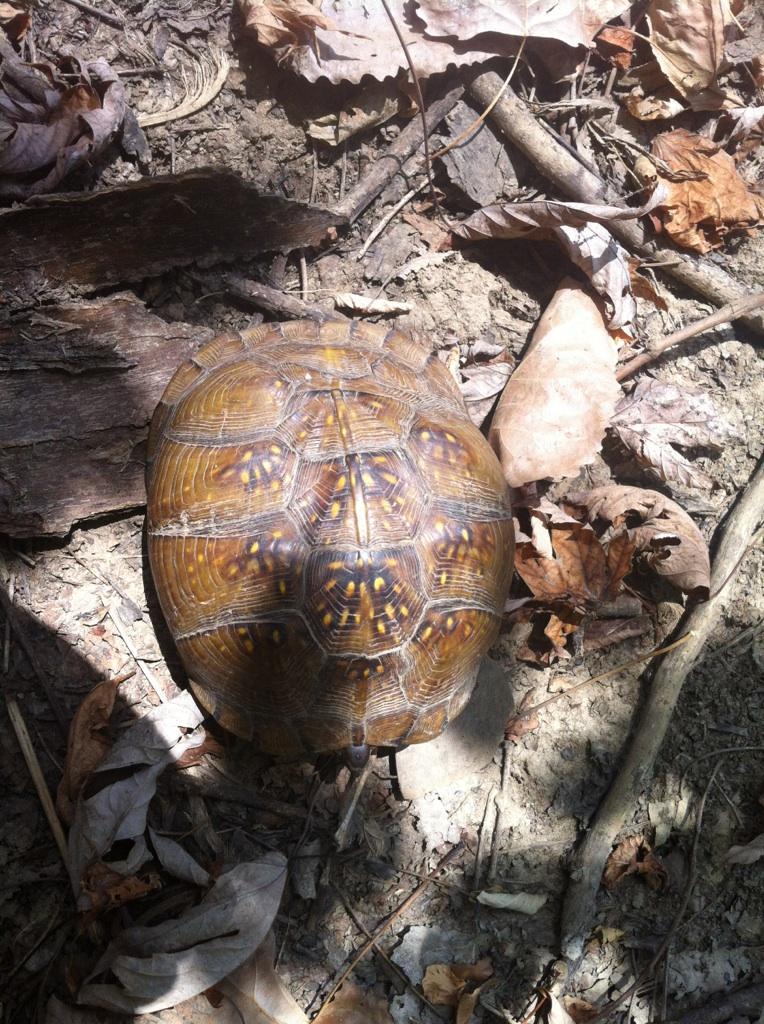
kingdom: Animalia
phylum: Chordata
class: Testudines
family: Emydidae
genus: Terrapene
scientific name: Terrapene carolina
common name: Common box turtle
